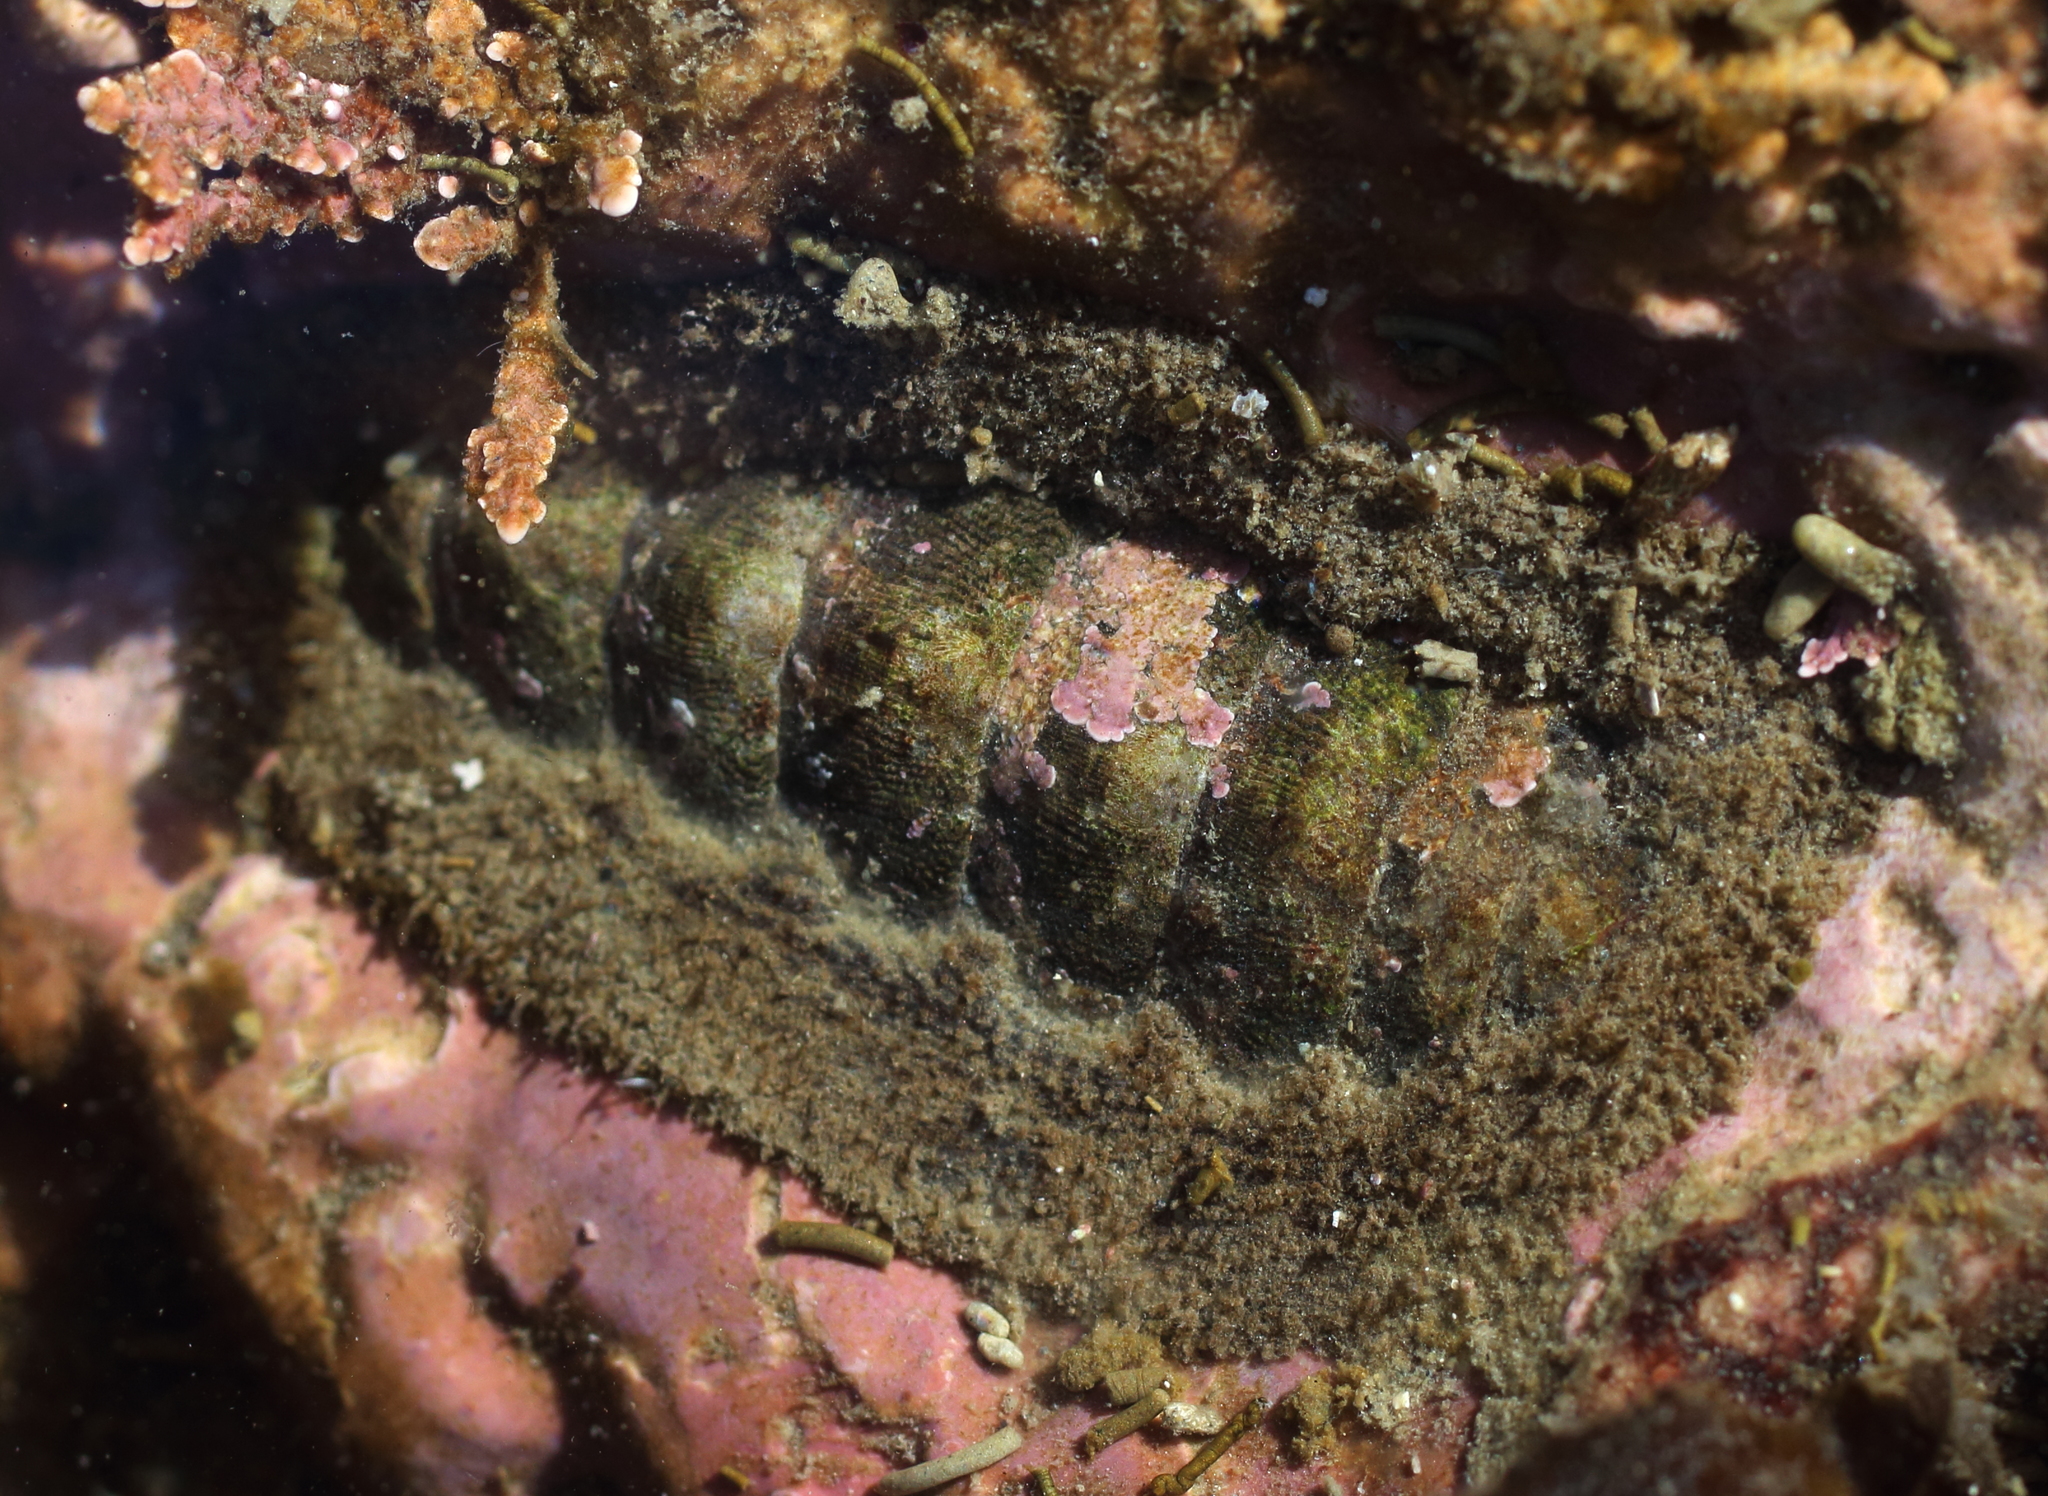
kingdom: Animalia
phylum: Mollusca
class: Polyplacophora
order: Chitonida
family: Mopaliidae
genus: Mopalia
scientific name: Mopalia hindsii
